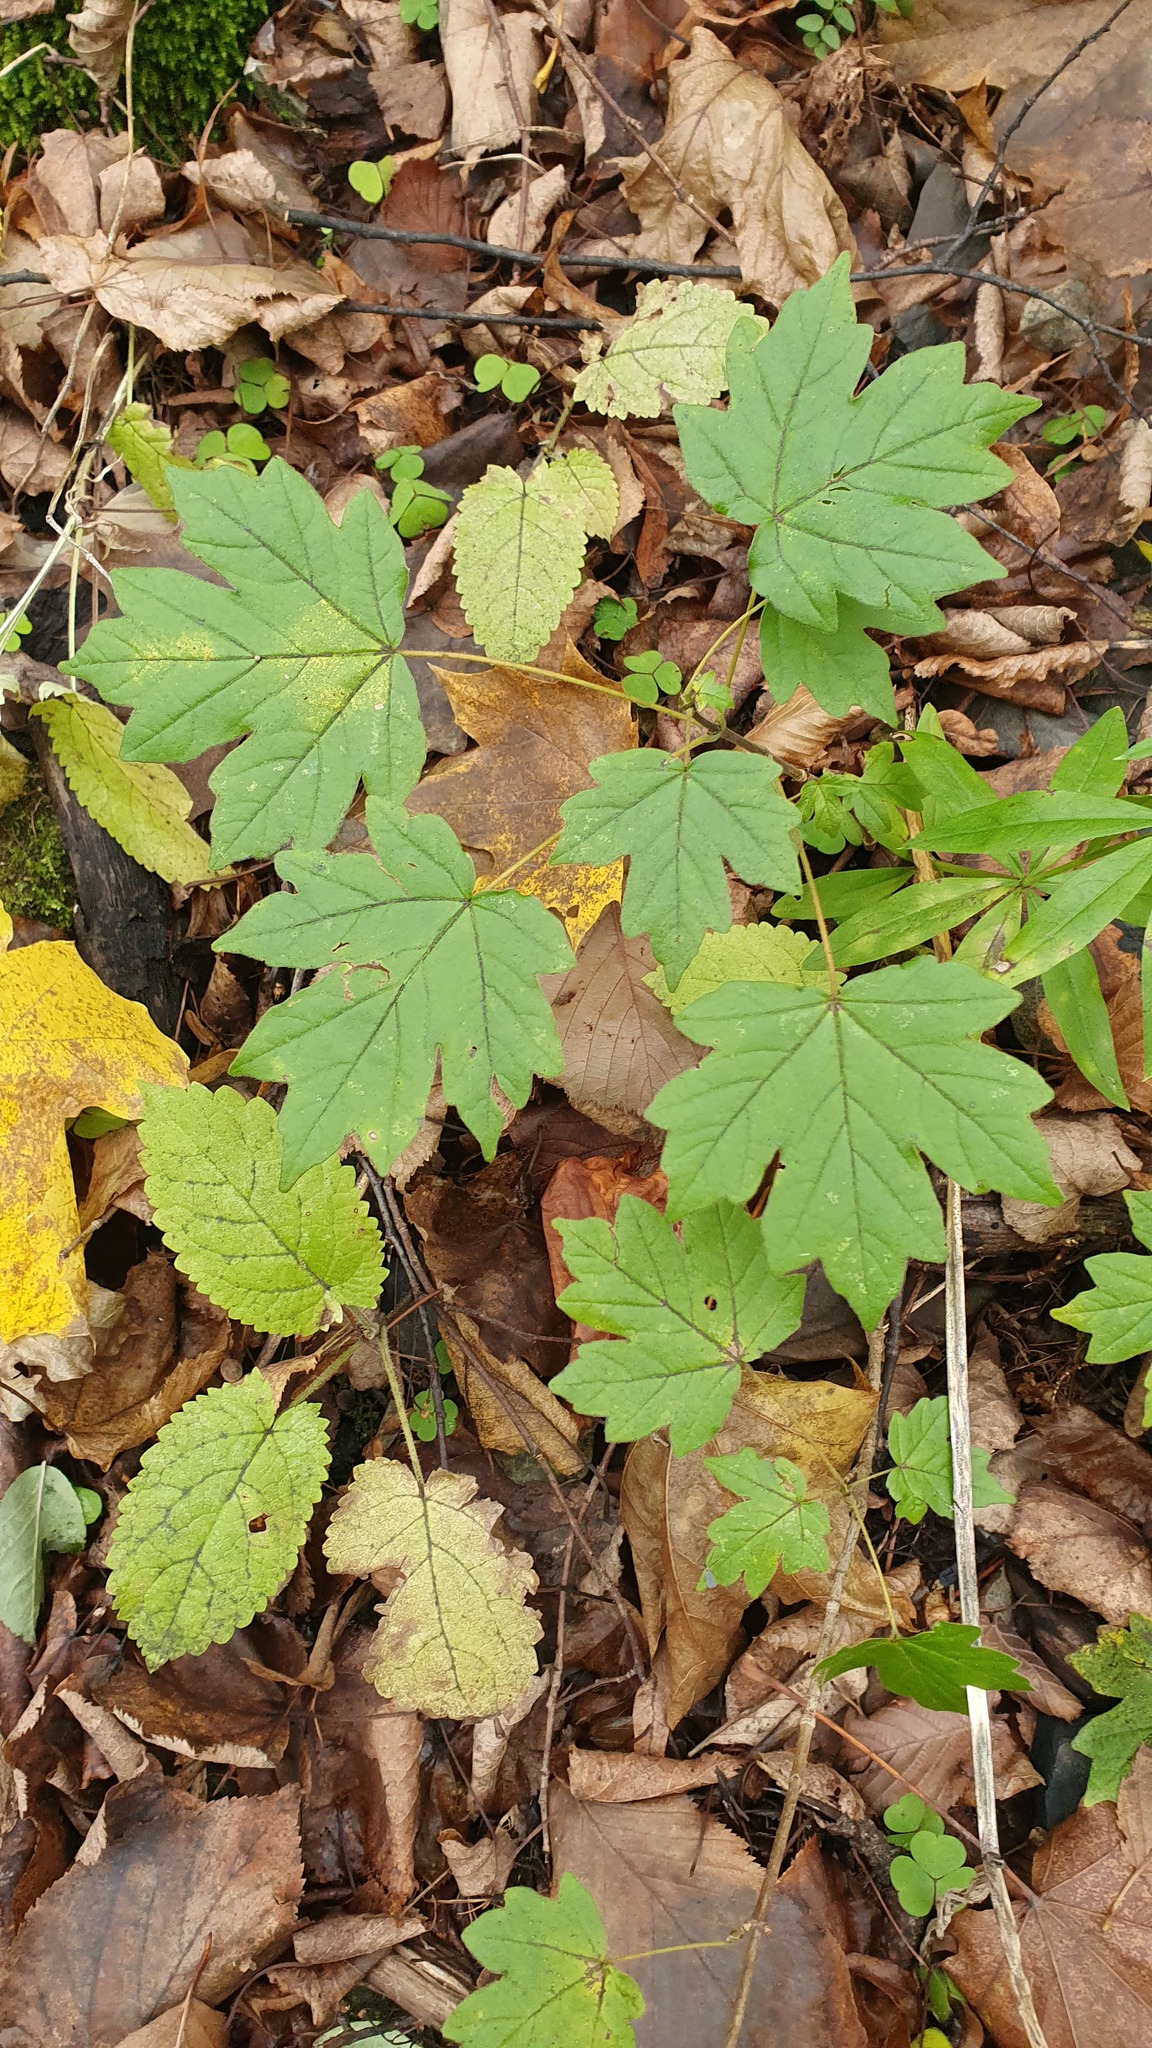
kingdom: Plantae
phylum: Tracheophyta
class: Magnoliopsida
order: Sapindales
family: Sapindaceae
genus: Acer
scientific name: Acer campestre
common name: Field maple
